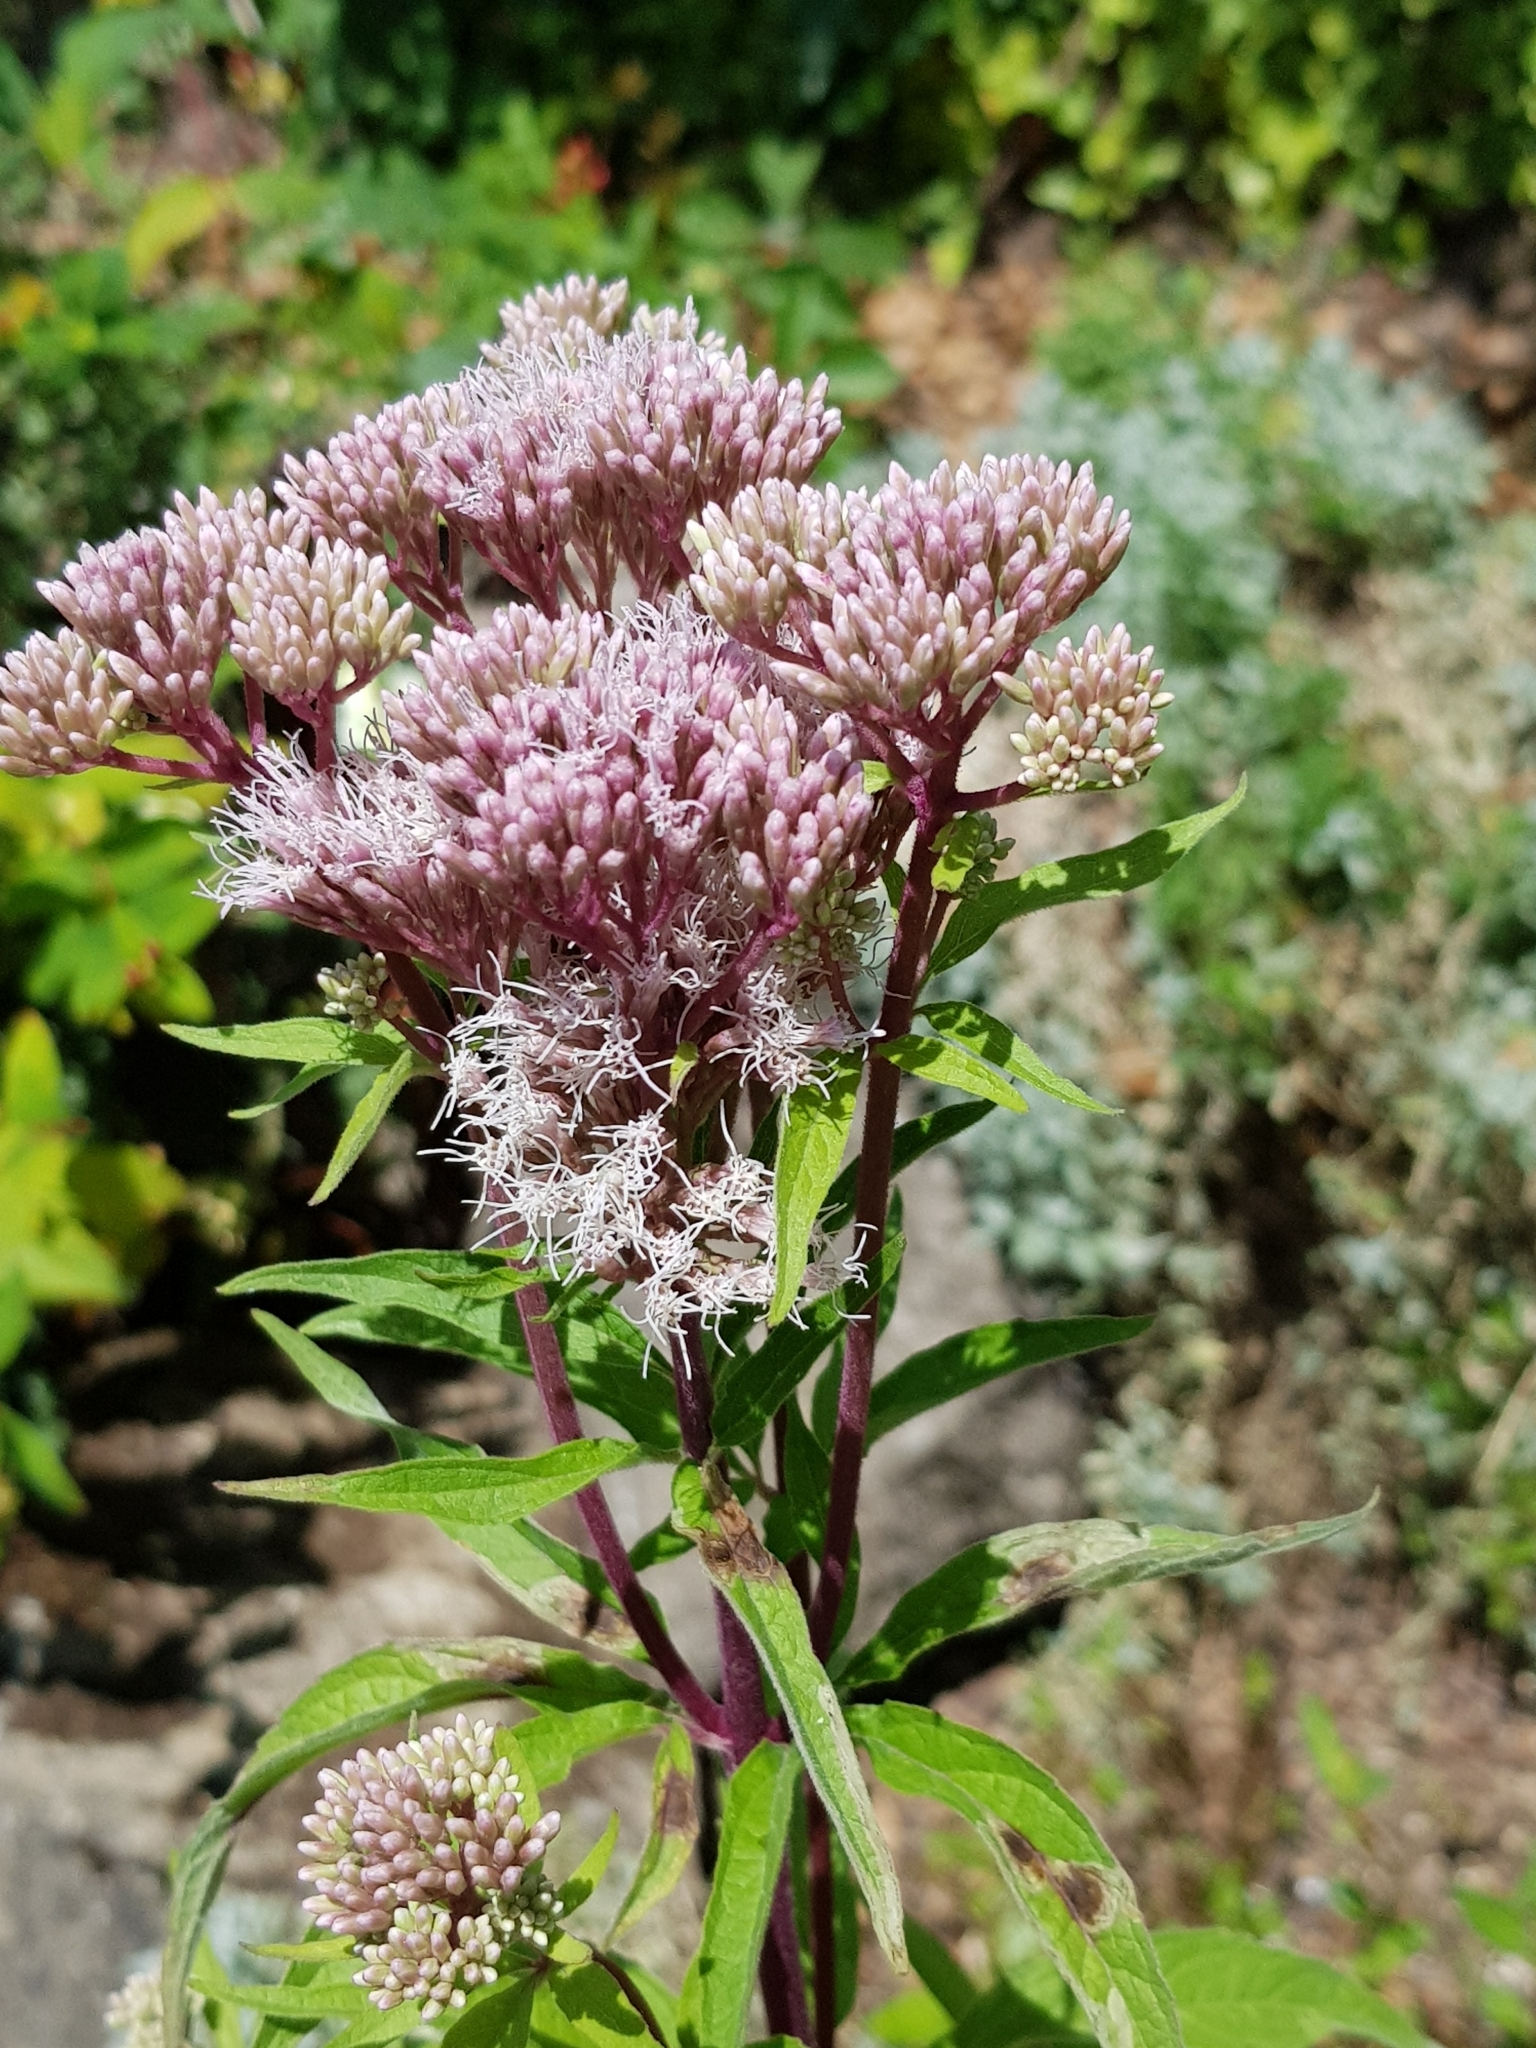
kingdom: Plantae
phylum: Tracheophyta
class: Magnoliopsida
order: Asterales
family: Asteraceae
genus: Eupatorium
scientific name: Eupatorium cannabinum
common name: Hemp-agrimony
